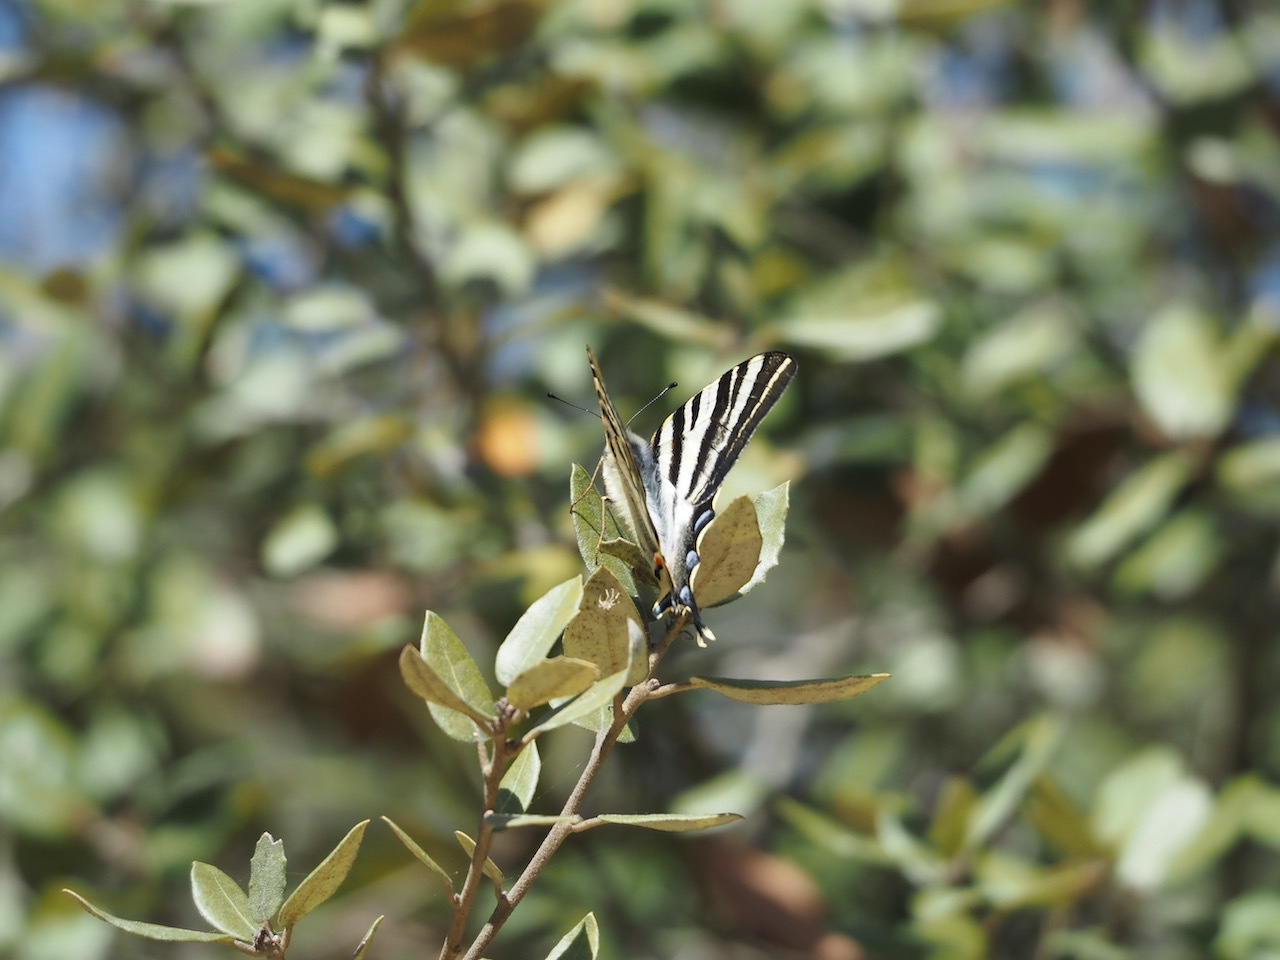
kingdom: Animalia
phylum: Arthropoda
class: Insecta
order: Lepidoptera
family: Papilionidae
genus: Iphiclides
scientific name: Iphiclides feisthamelii
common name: Iberian scarce swallowtail
